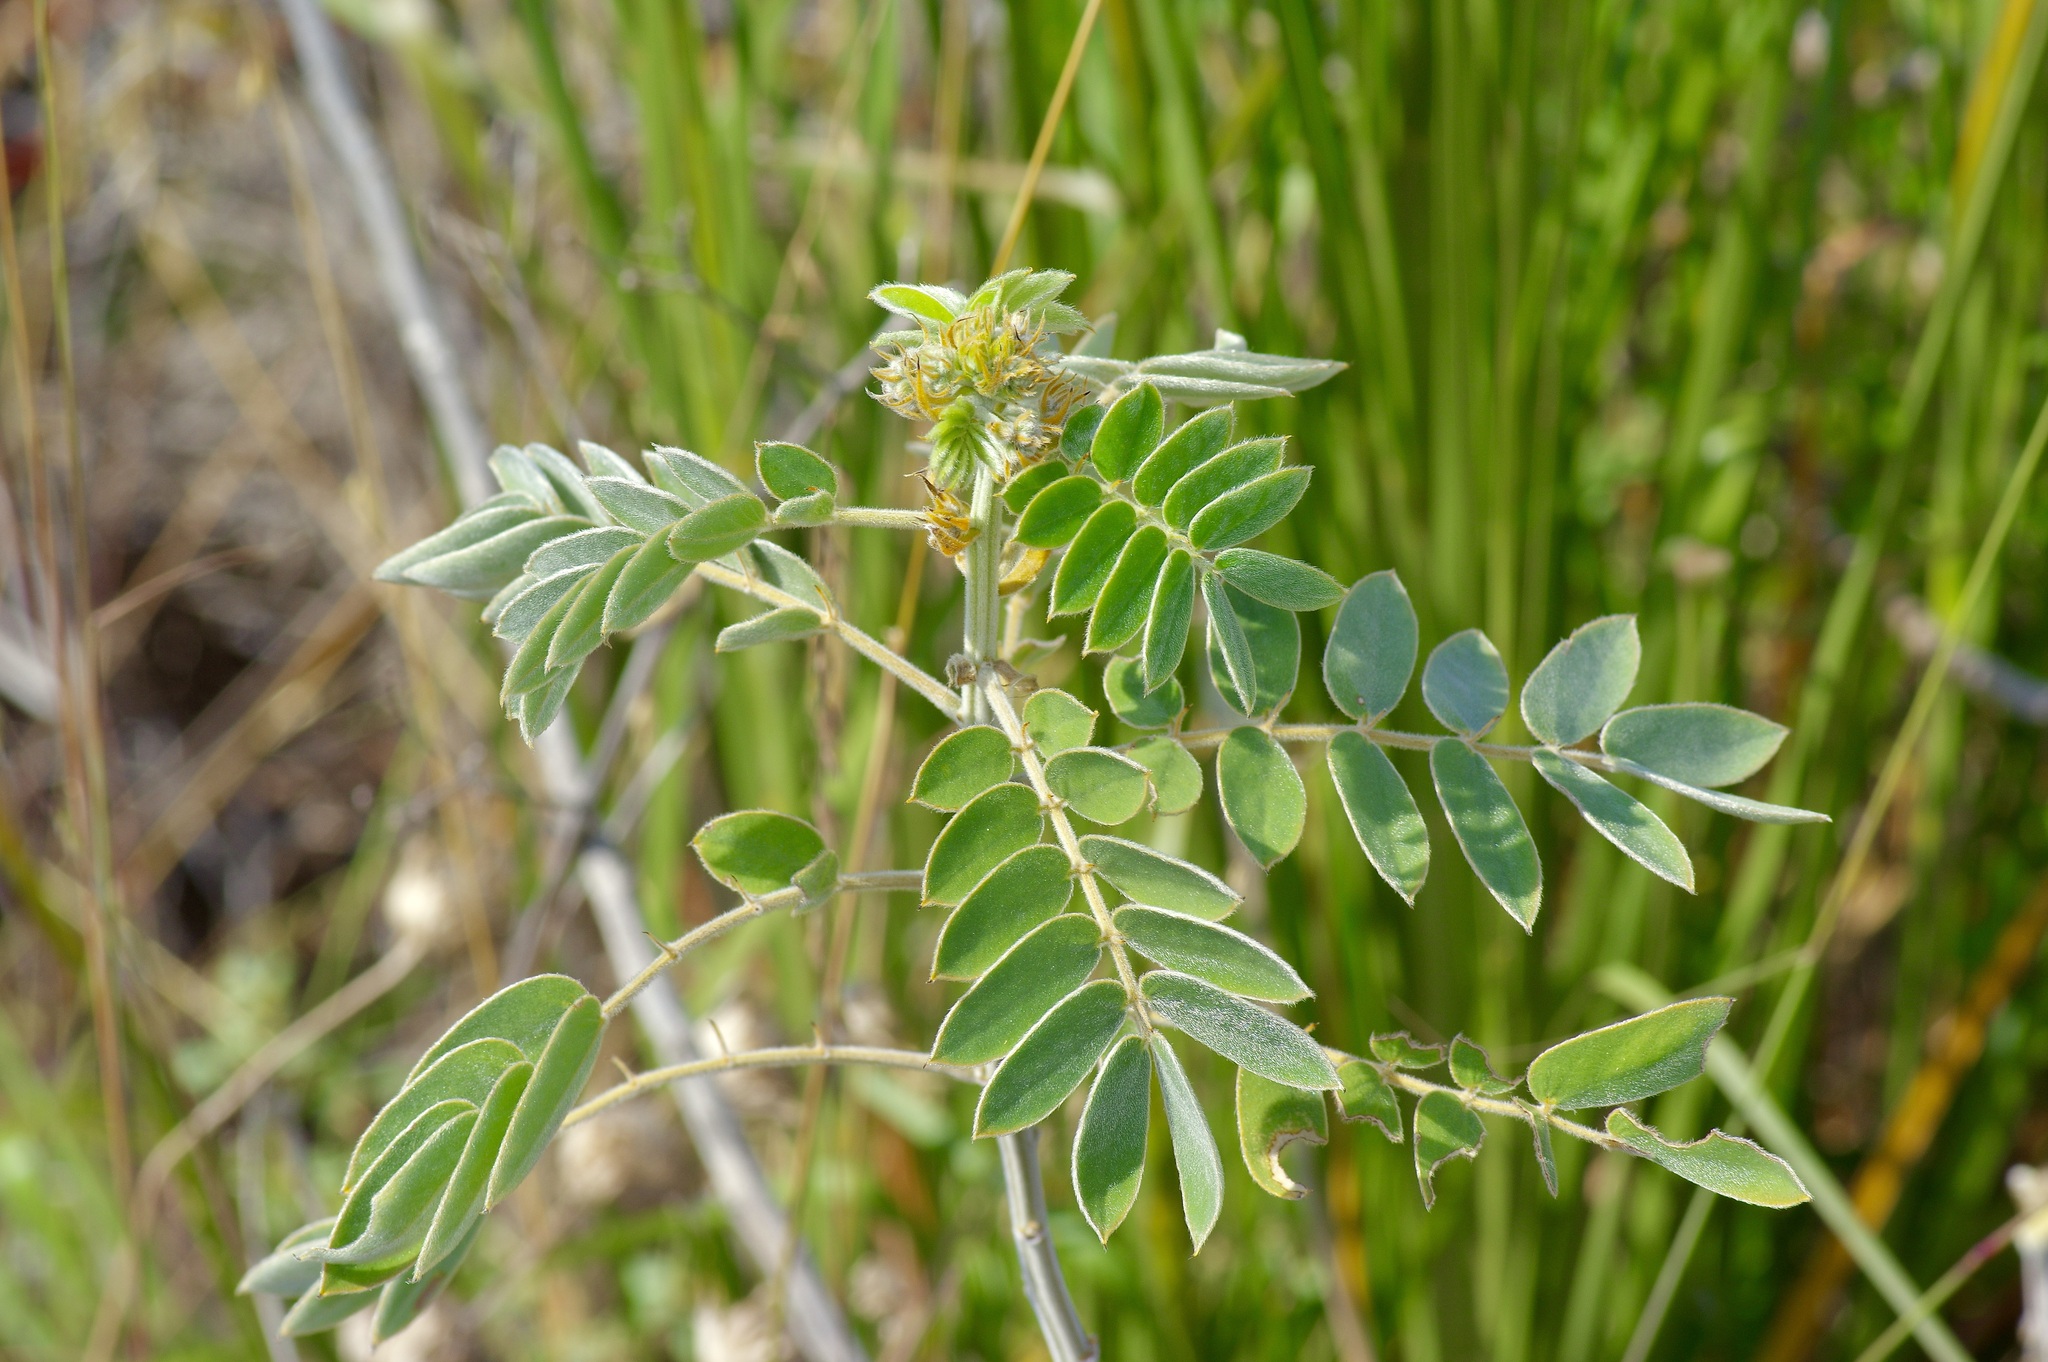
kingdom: Plantae
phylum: Tracheophyta
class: Magnoliopsida
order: Fabales
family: Fabaceae
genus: Senna
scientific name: Senna lindheimeriana
